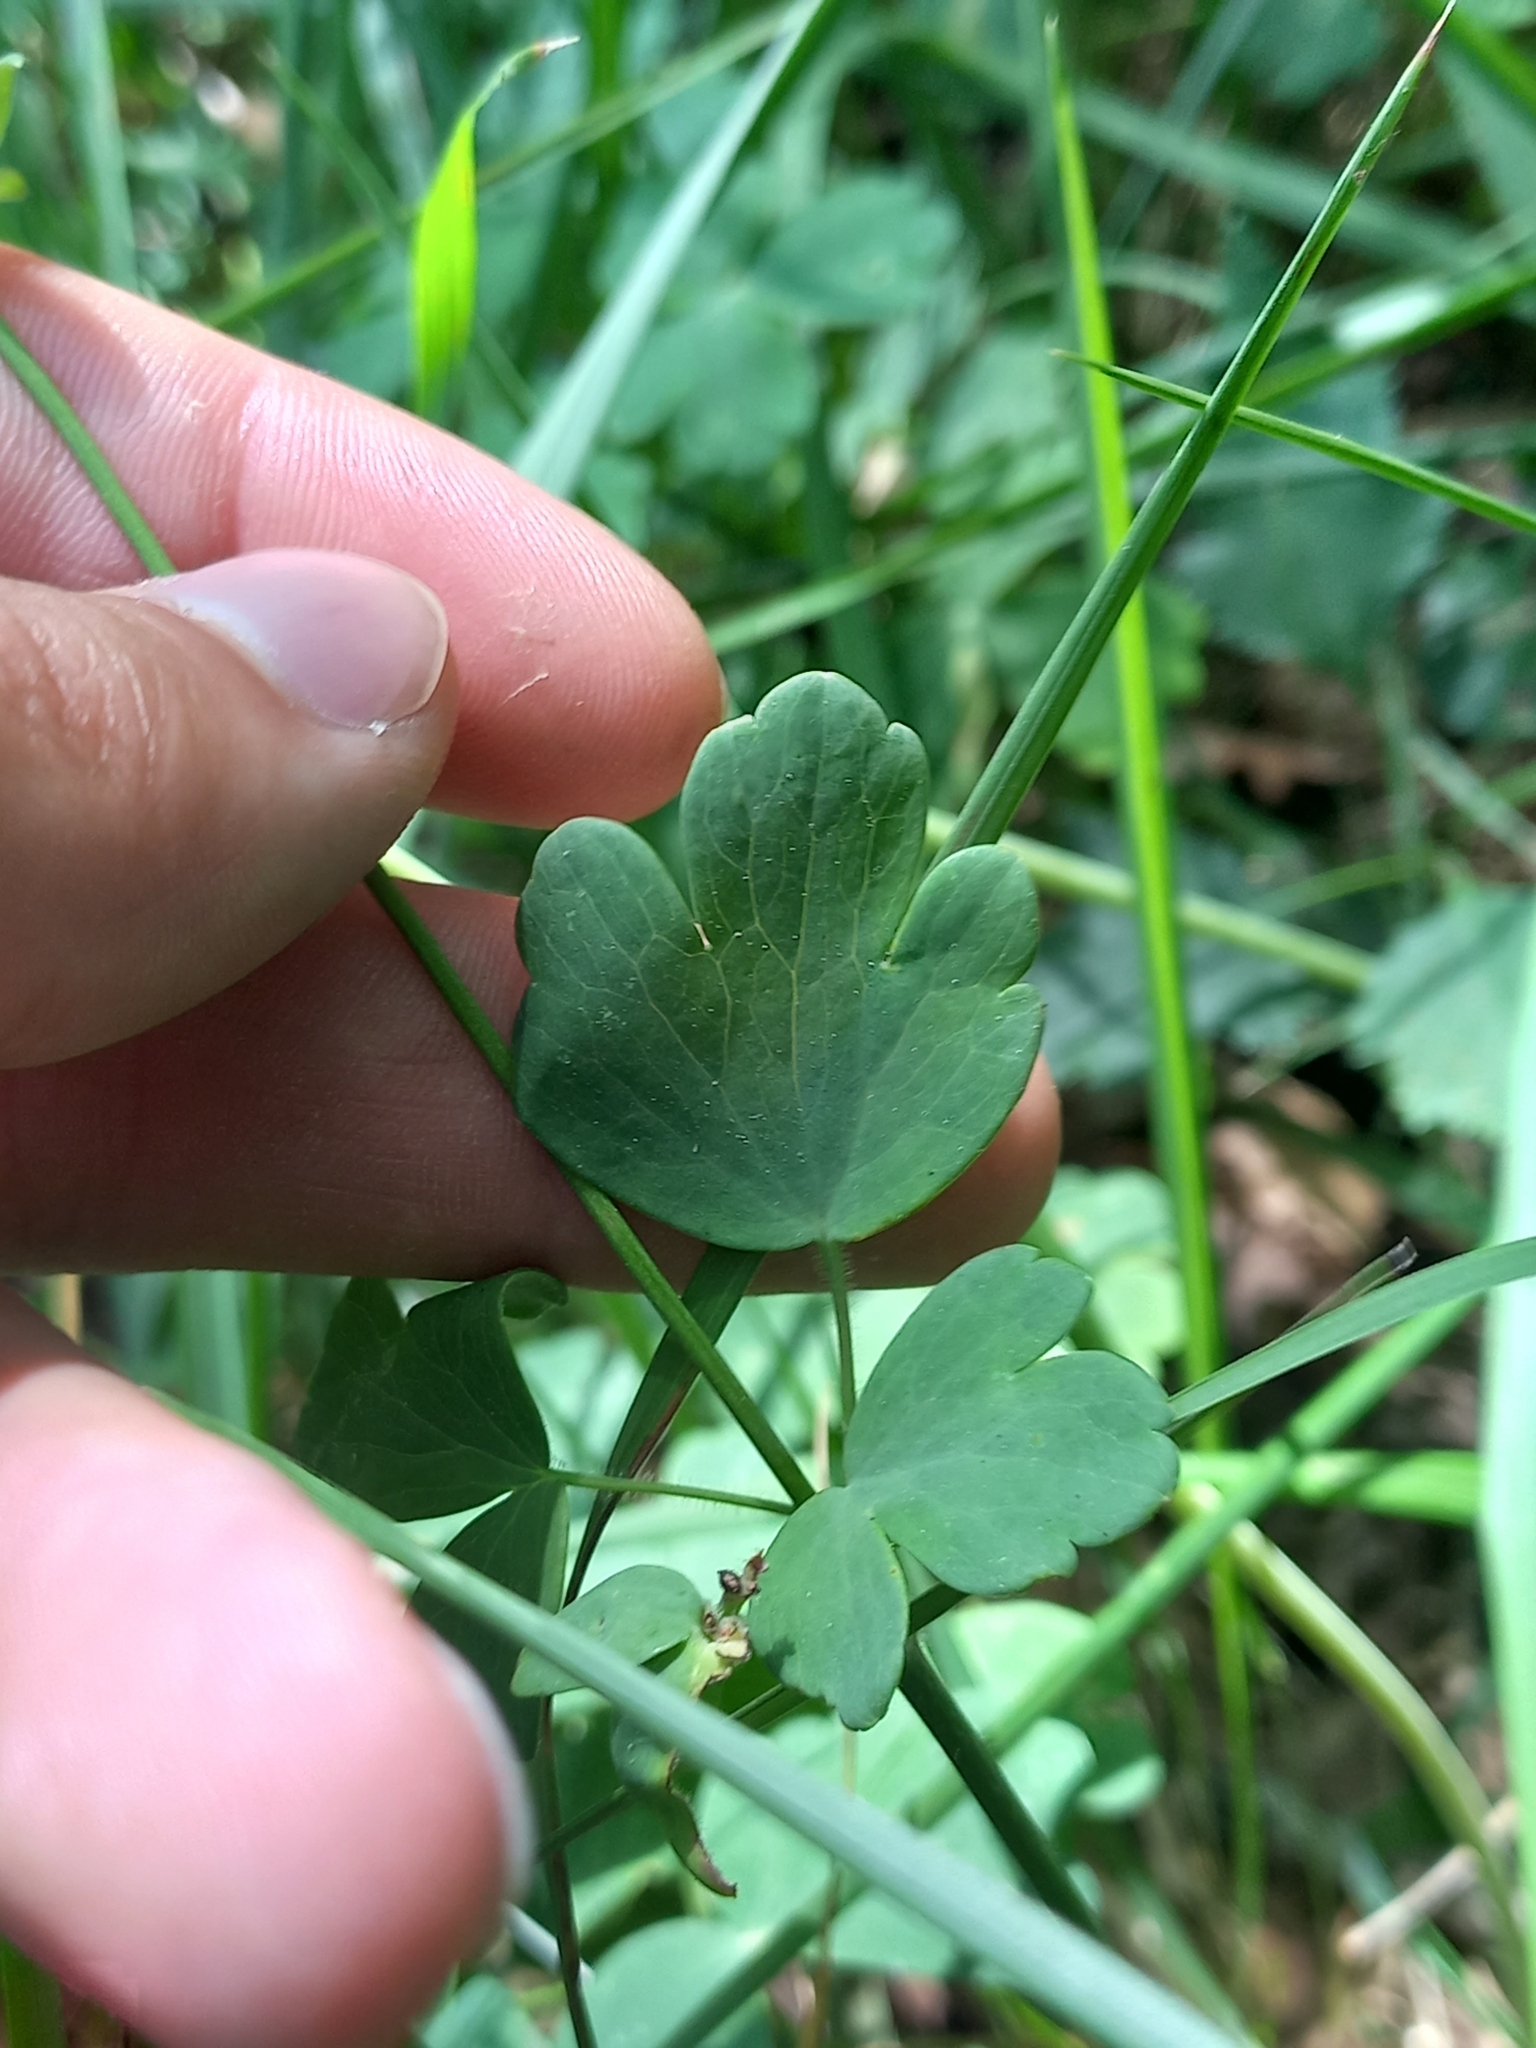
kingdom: Plantae
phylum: Tracheophyta
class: Magnoliopsida
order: Ranunculales
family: Ranunculaceae
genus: Aquilegia
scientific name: Aquilegia vulgaris
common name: Columbine
